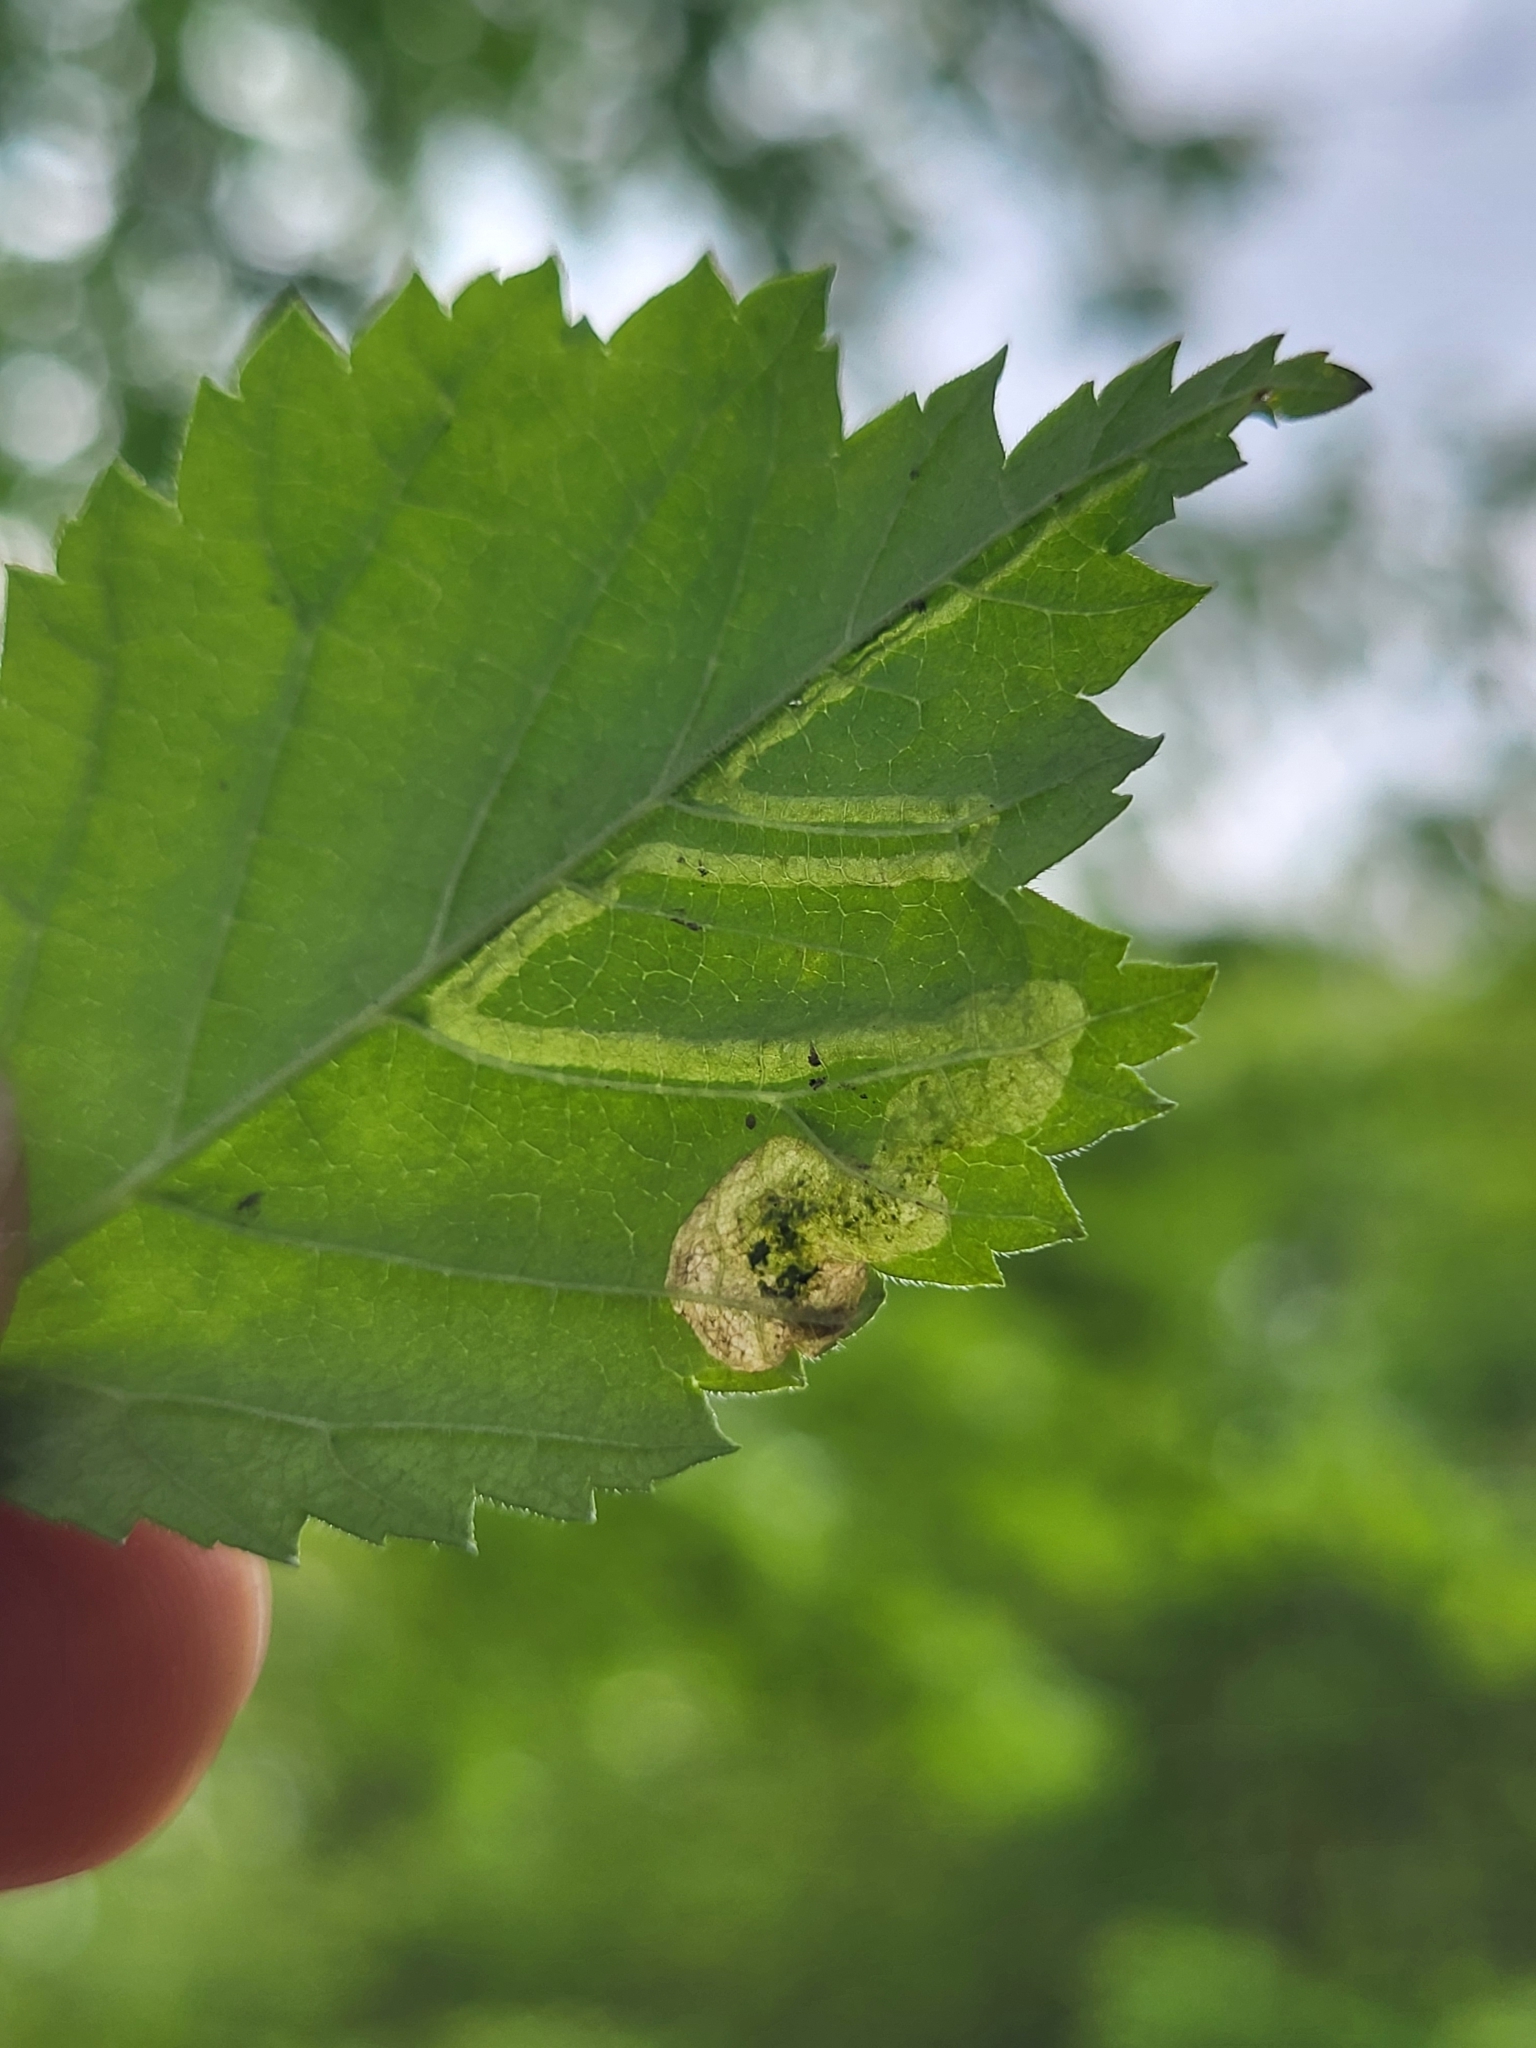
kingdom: Animalia
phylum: Arthropoda
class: Insecta
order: Diptera
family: Agromyzidae
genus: Agromyza
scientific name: Agromyza aristata
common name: Elm agromyzid leafminer
